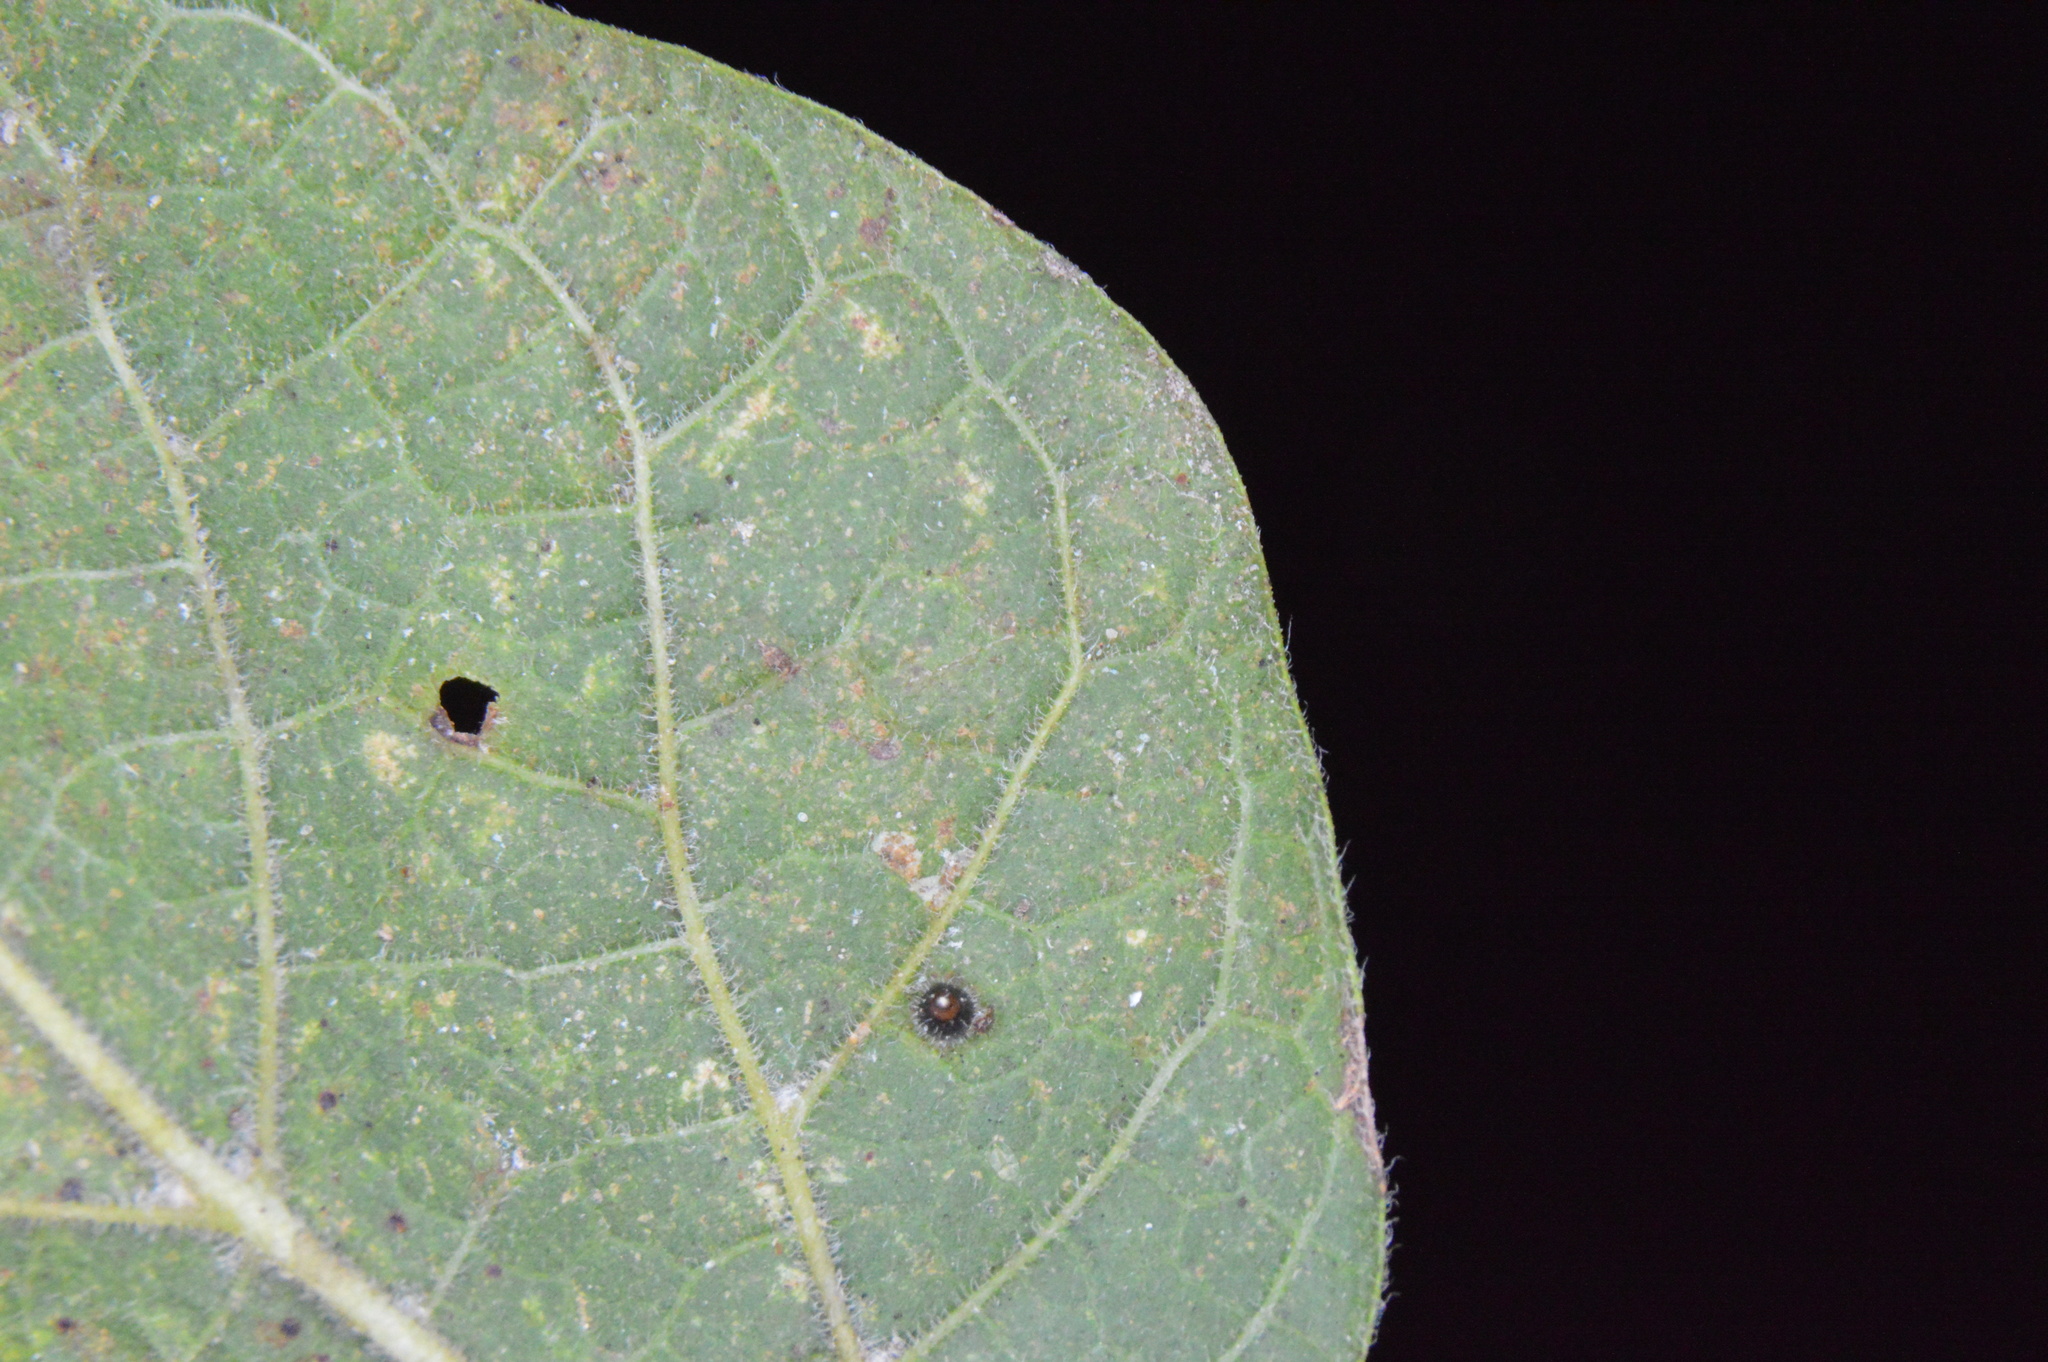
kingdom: Animalia
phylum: Arthropoda
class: Insecta
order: Diptera
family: Cecidomyiidae
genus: Celticecis
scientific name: Celticecis cupiformis
